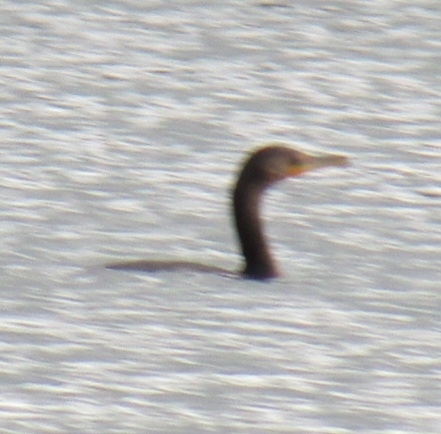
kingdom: Animalia
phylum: Chordata
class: Aves
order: Suliformes
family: Phalacrocoracidae
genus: Phalacrocorax
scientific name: Phalacrocorax auritus
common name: Double-crested cormorant
